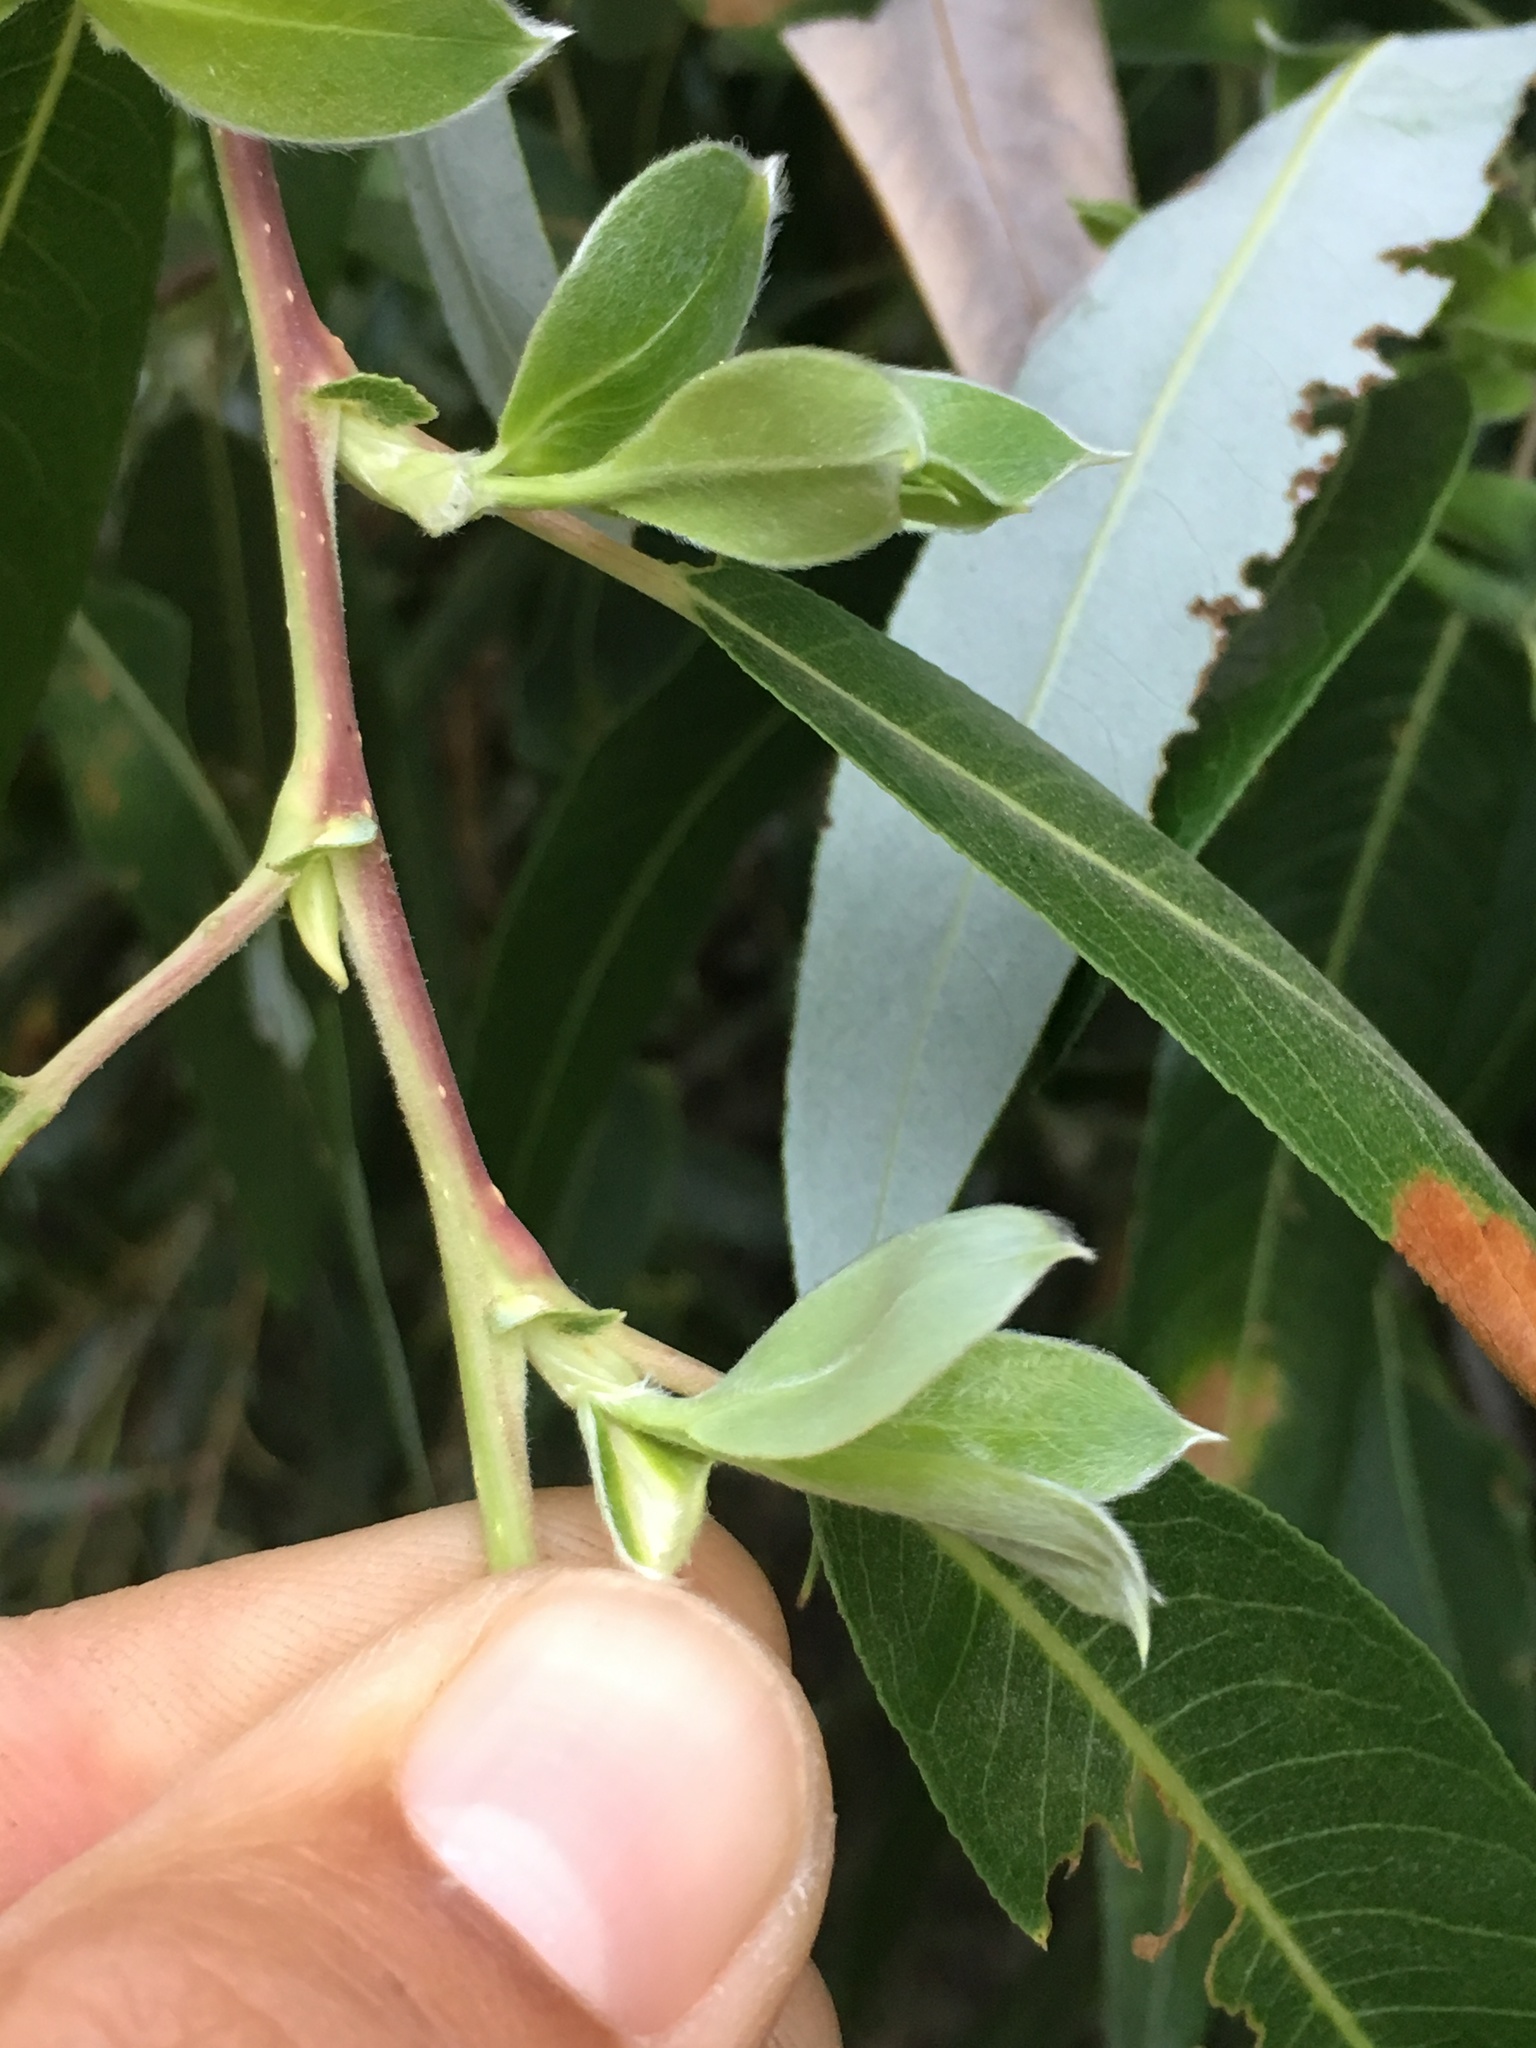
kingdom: Plantae
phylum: Tracheophyta
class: Magnoliopsida
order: Malpighiales
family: Salicaceae
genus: Salix
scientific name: Salix laevigata
